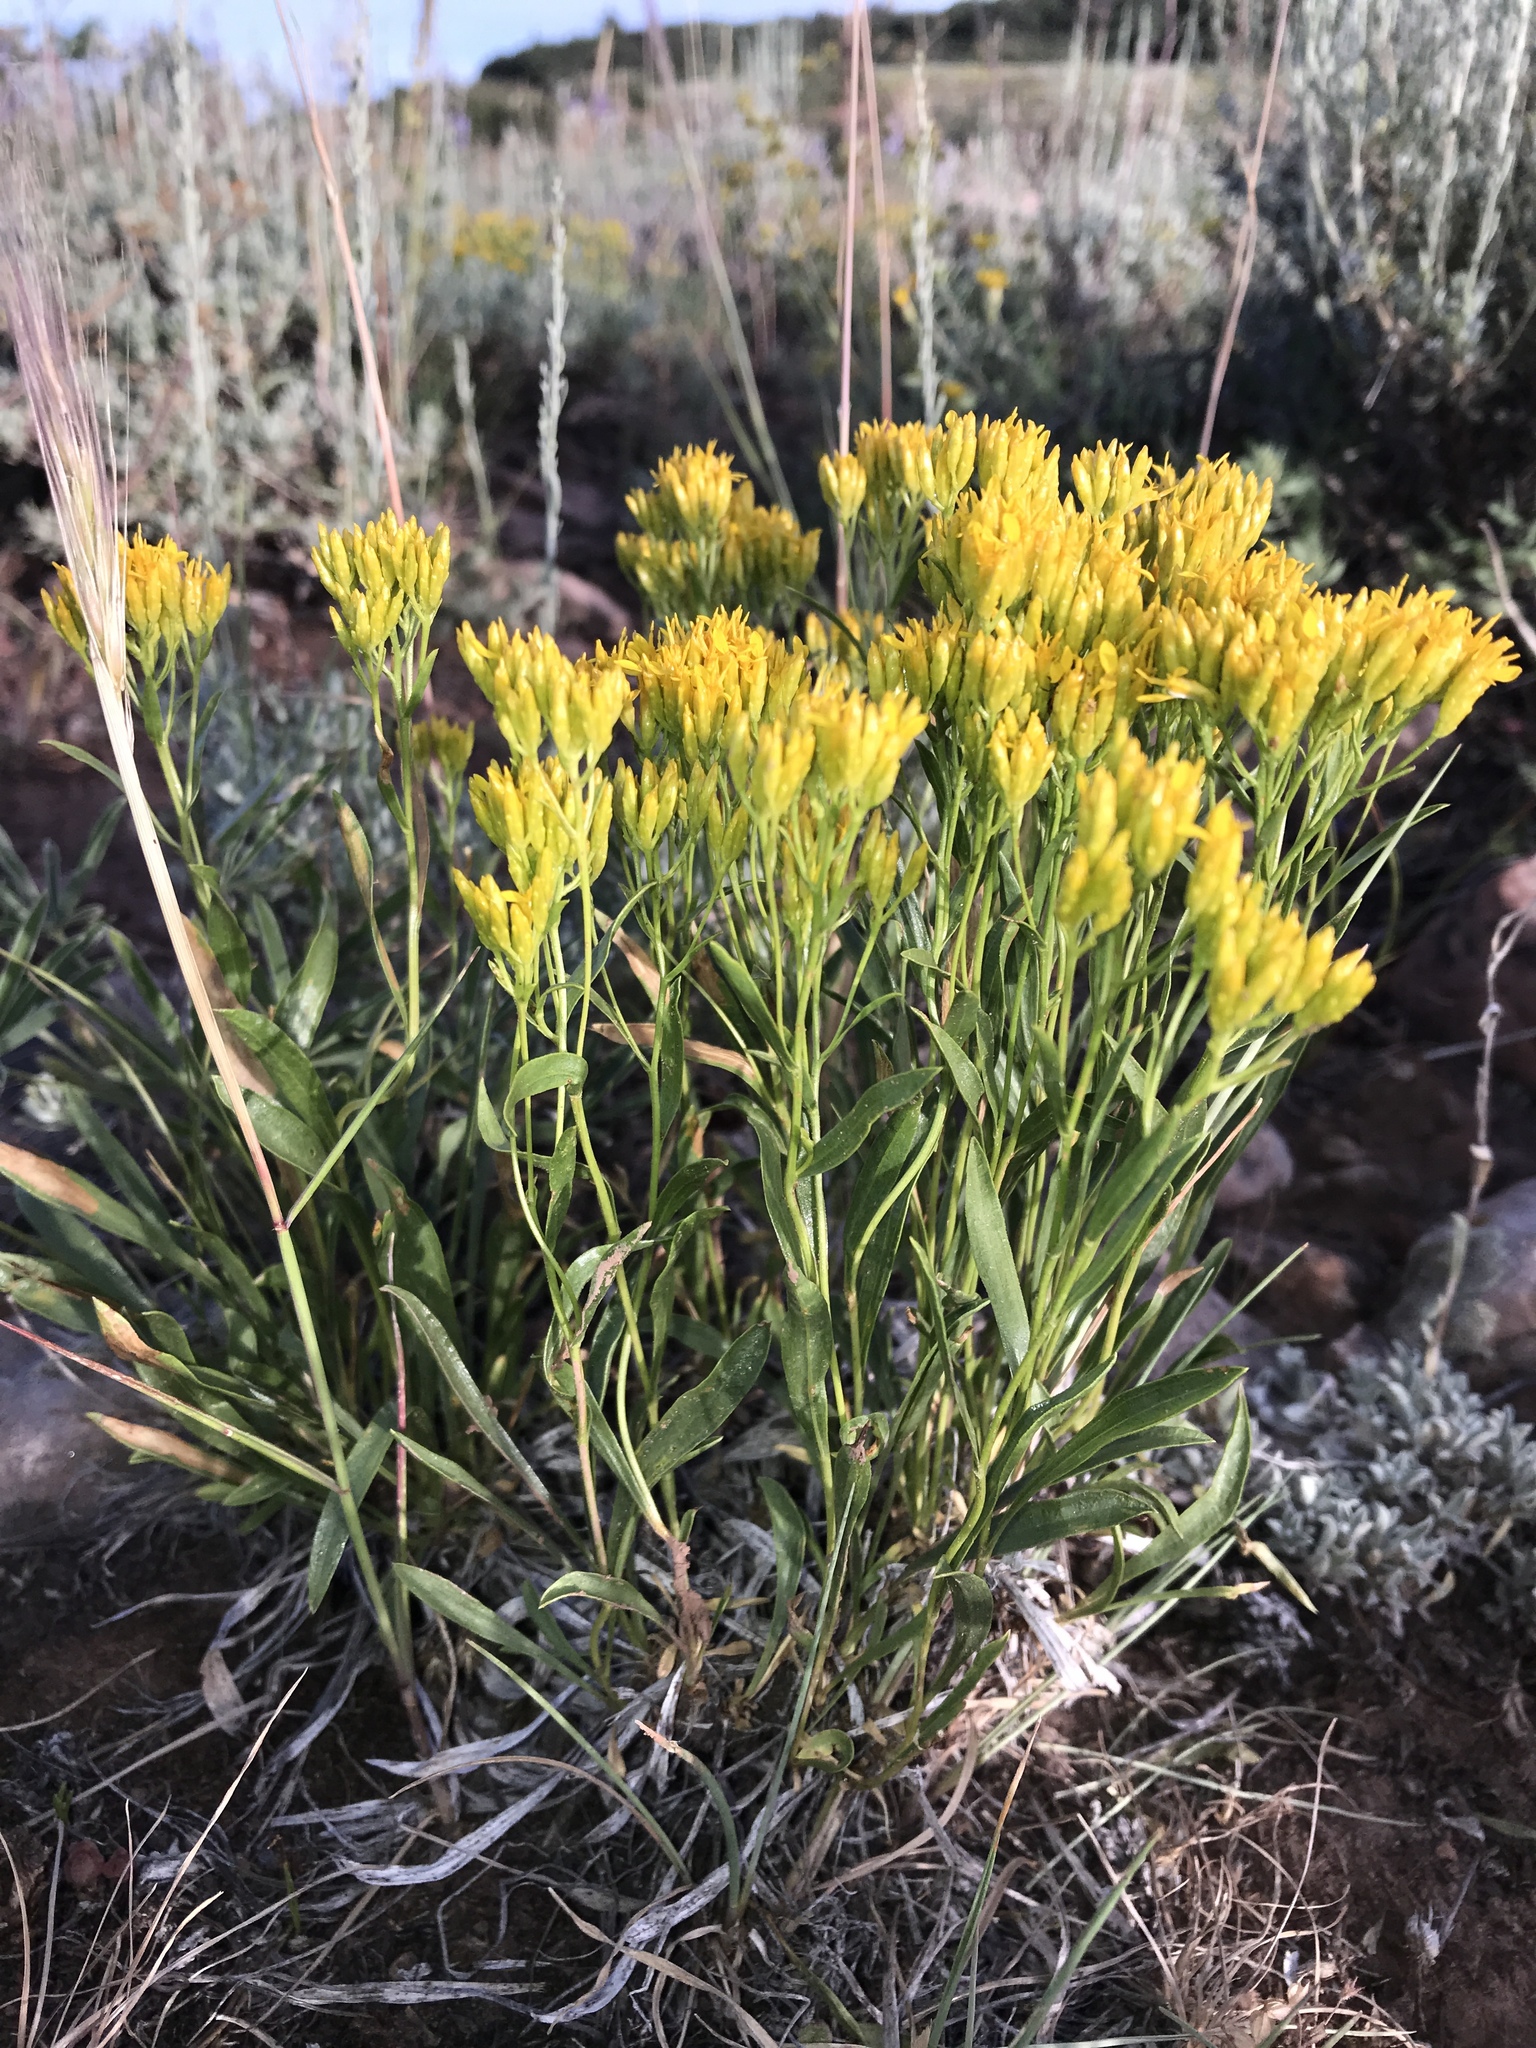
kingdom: Plantae
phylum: Tracheophyta
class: Magnoliopsida
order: Asterales
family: Asteraceae
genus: Petradoria
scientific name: Petradoria pumila
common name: Rock-goldenrod
